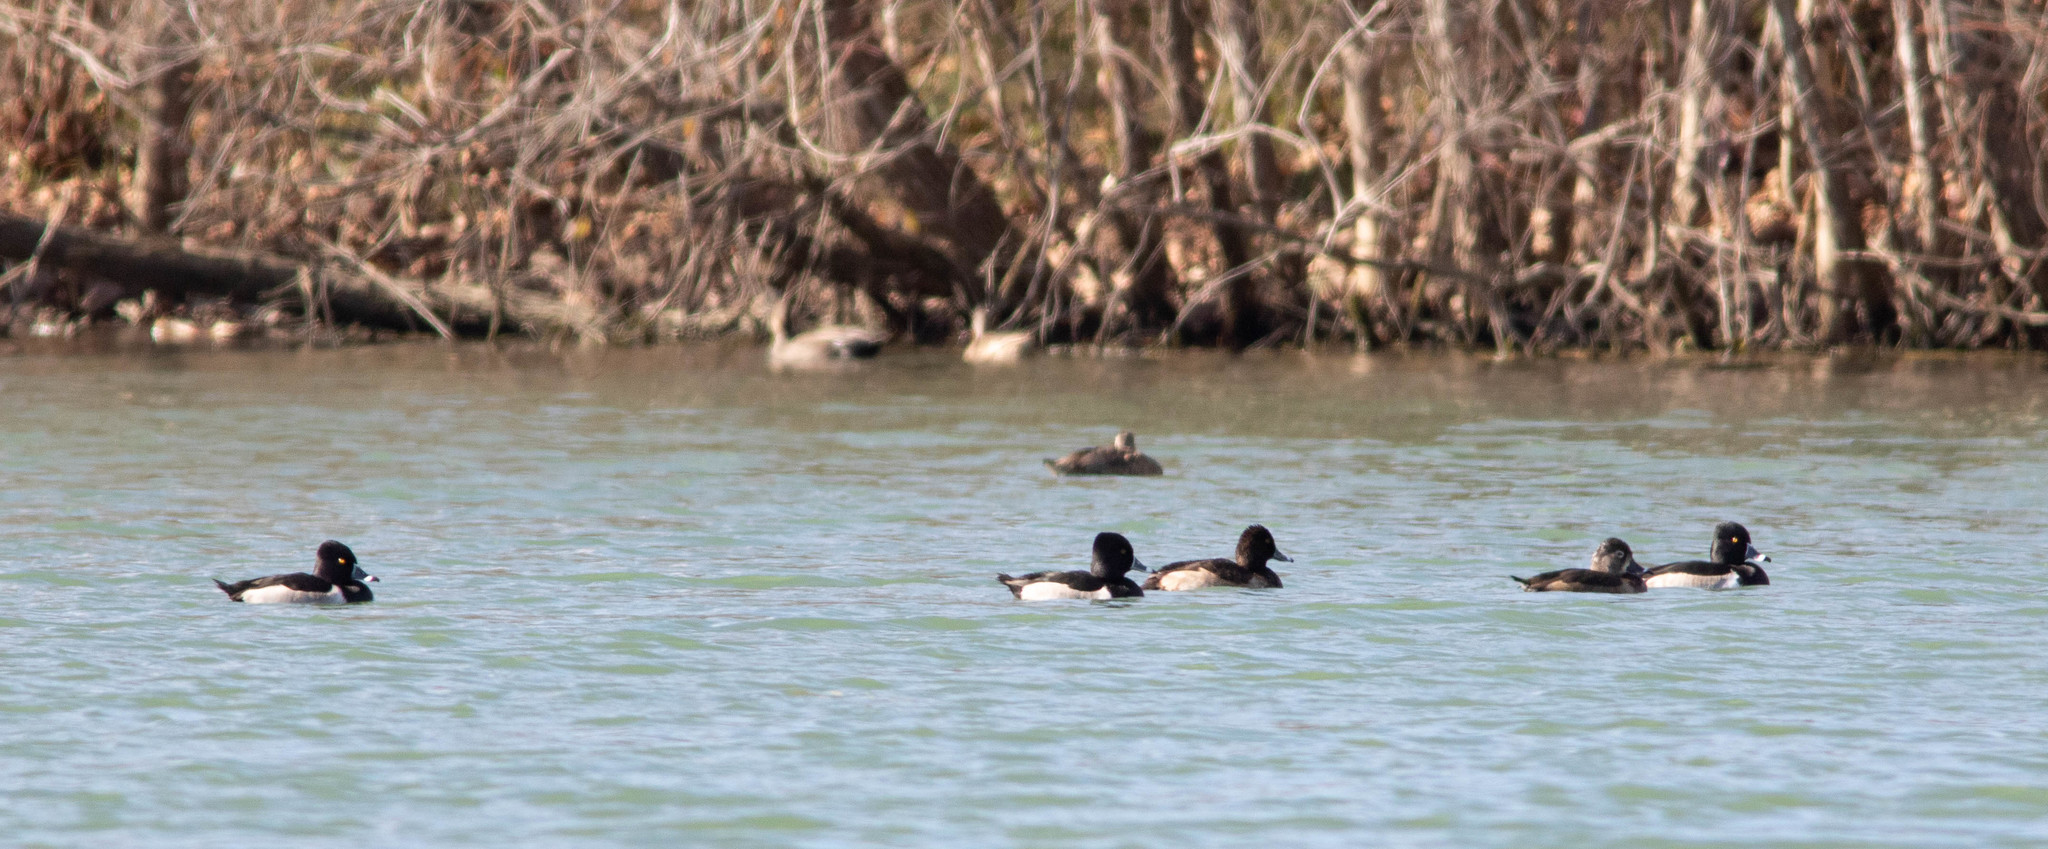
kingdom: Animalia
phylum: Chordata
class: Aves
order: Anseriformes
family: Anatidae
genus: Aythya
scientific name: Aythya collaris
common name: Ring-necked duck
